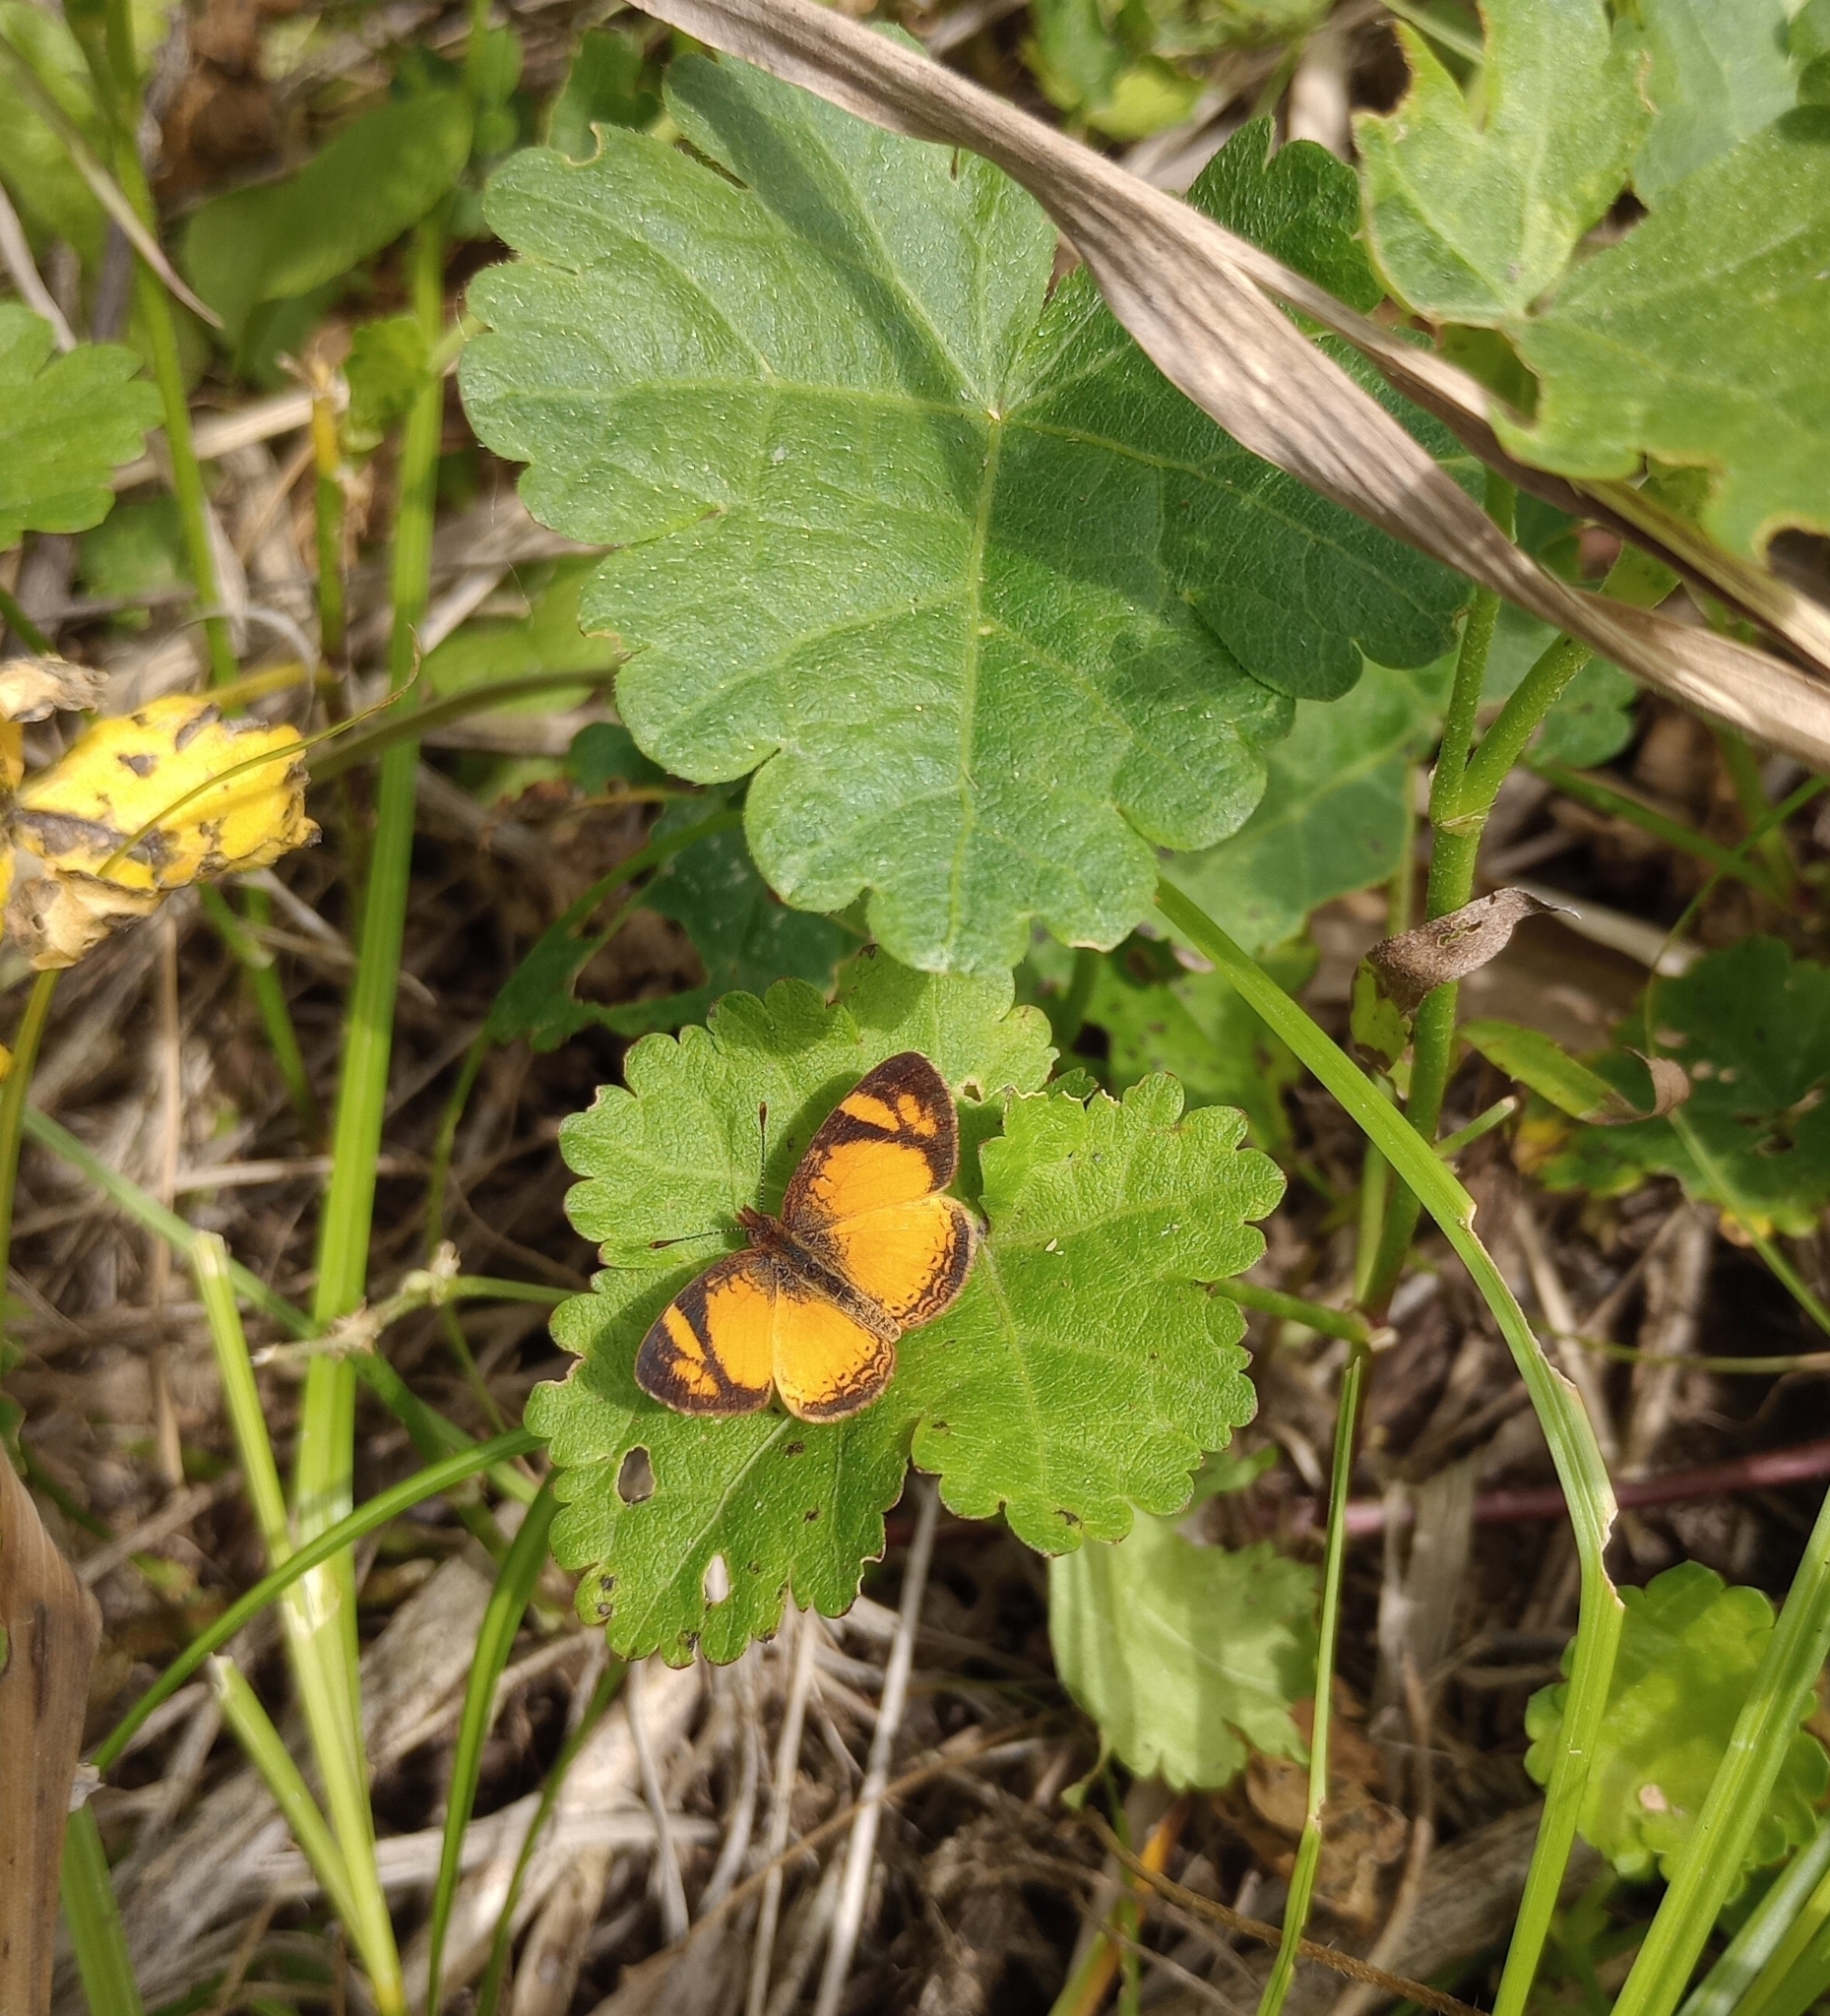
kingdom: Animalia
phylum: Arthropoda
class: Insecta
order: Lepidoptera
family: Nymphalidae
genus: Tegosa
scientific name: Tegosa claudina
